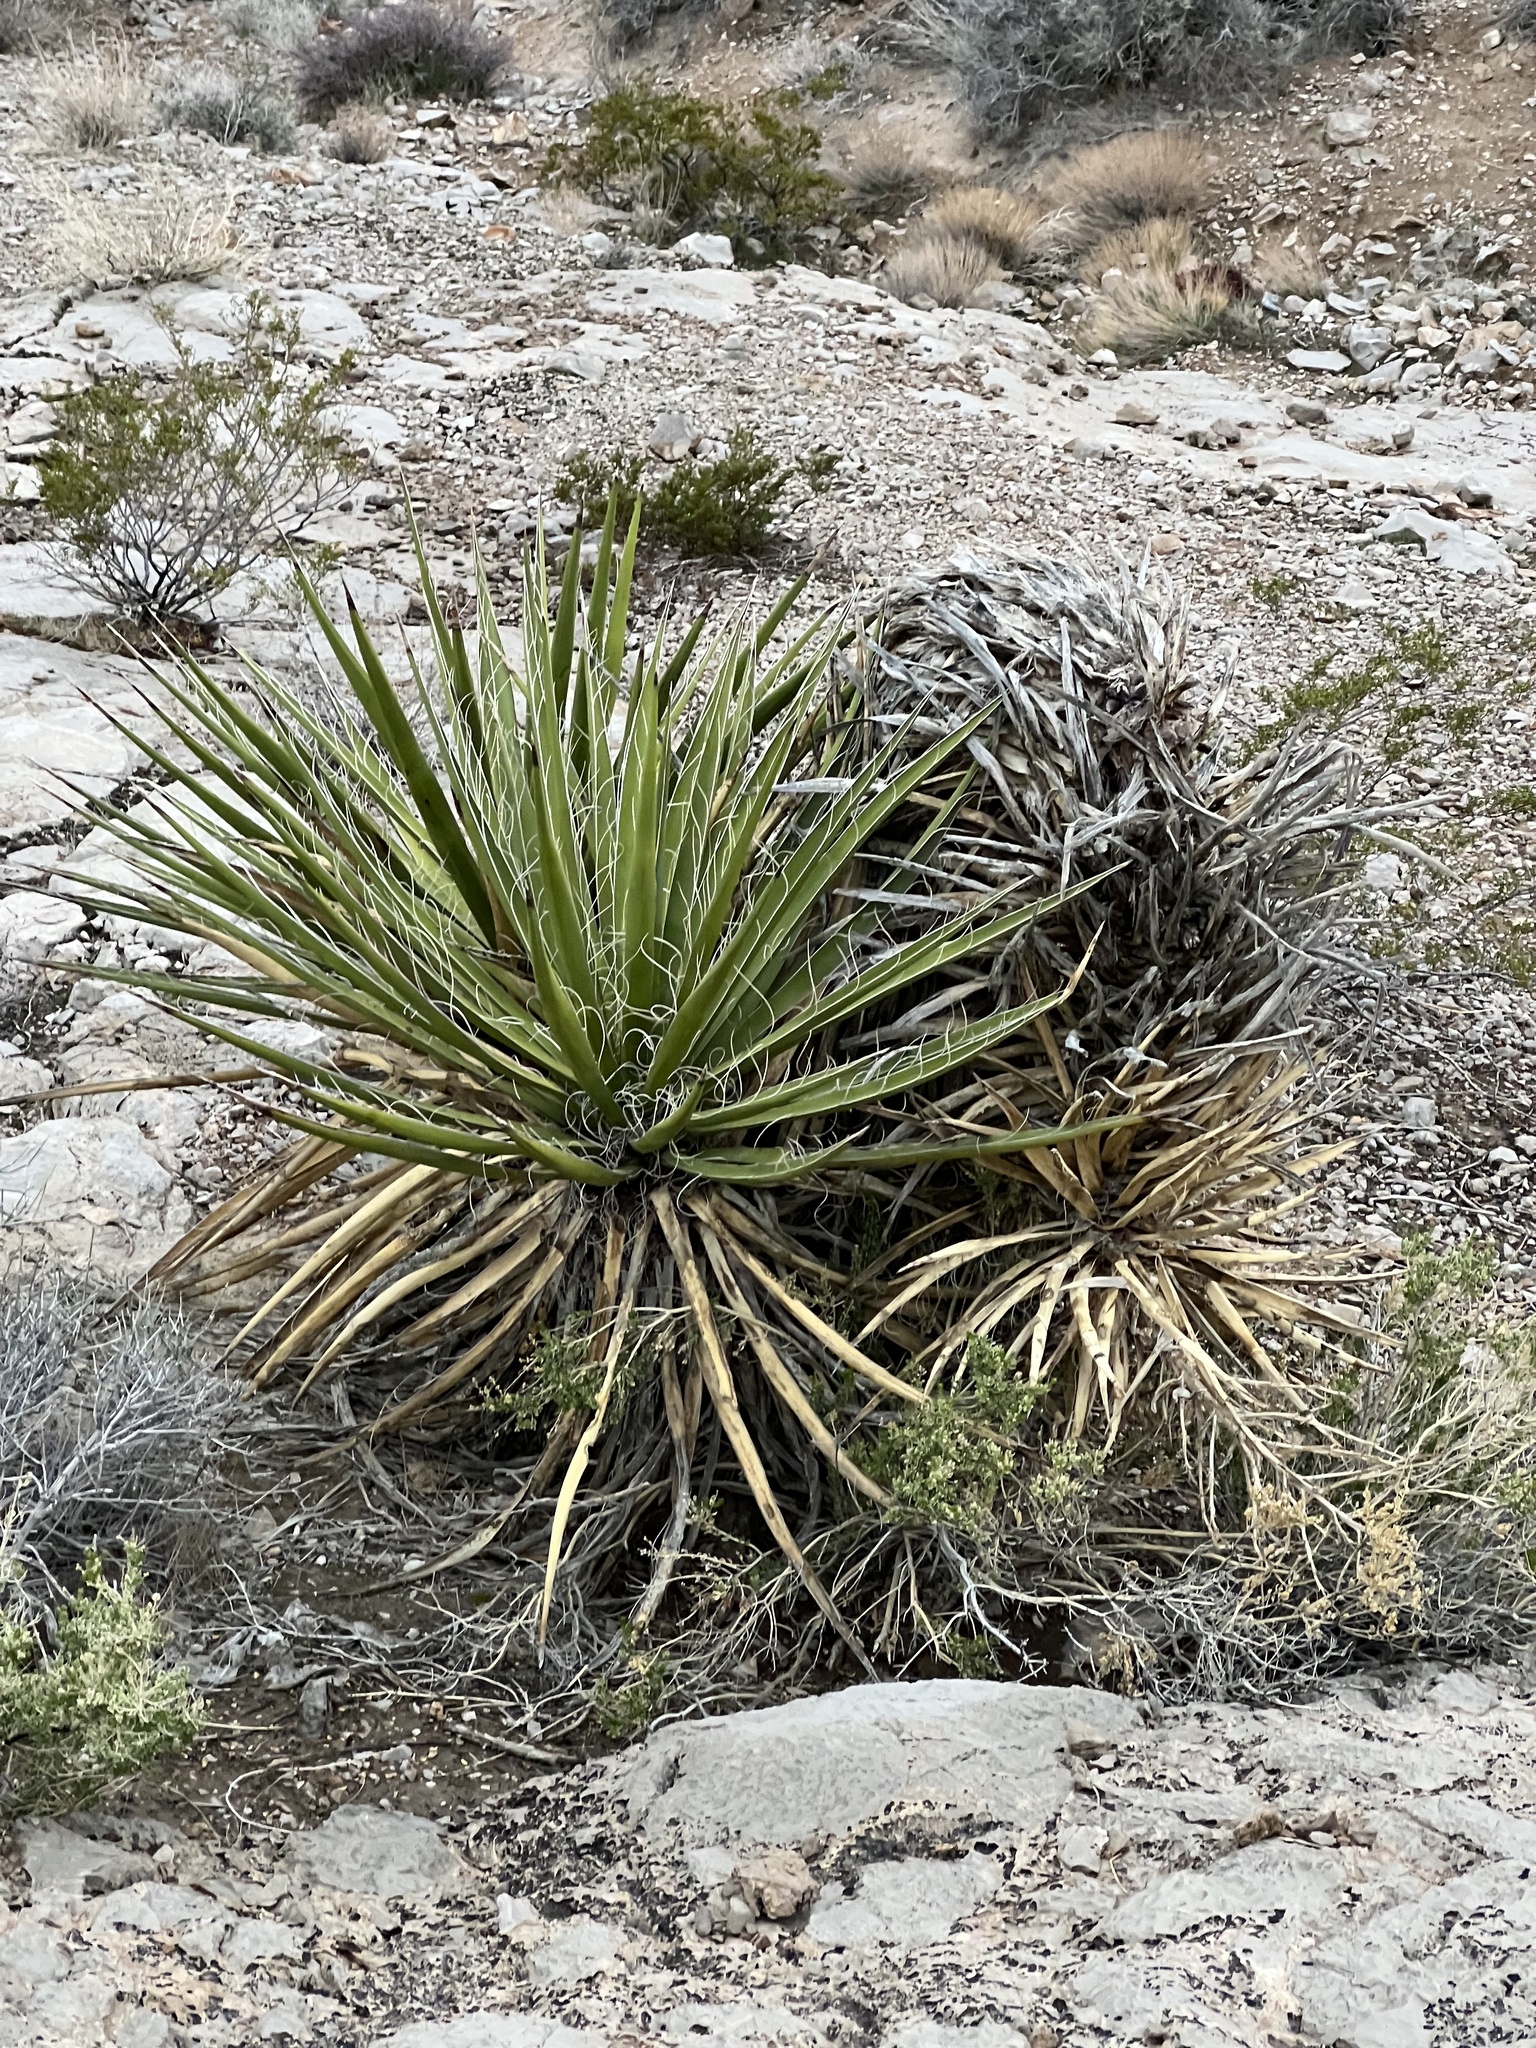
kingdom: Plantae
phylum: Tracheophyta
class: Liliopsida
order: Asparagales
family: Asparagaceae
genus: Yucca
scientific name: Yucca schidigera
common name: Mojave yucca
